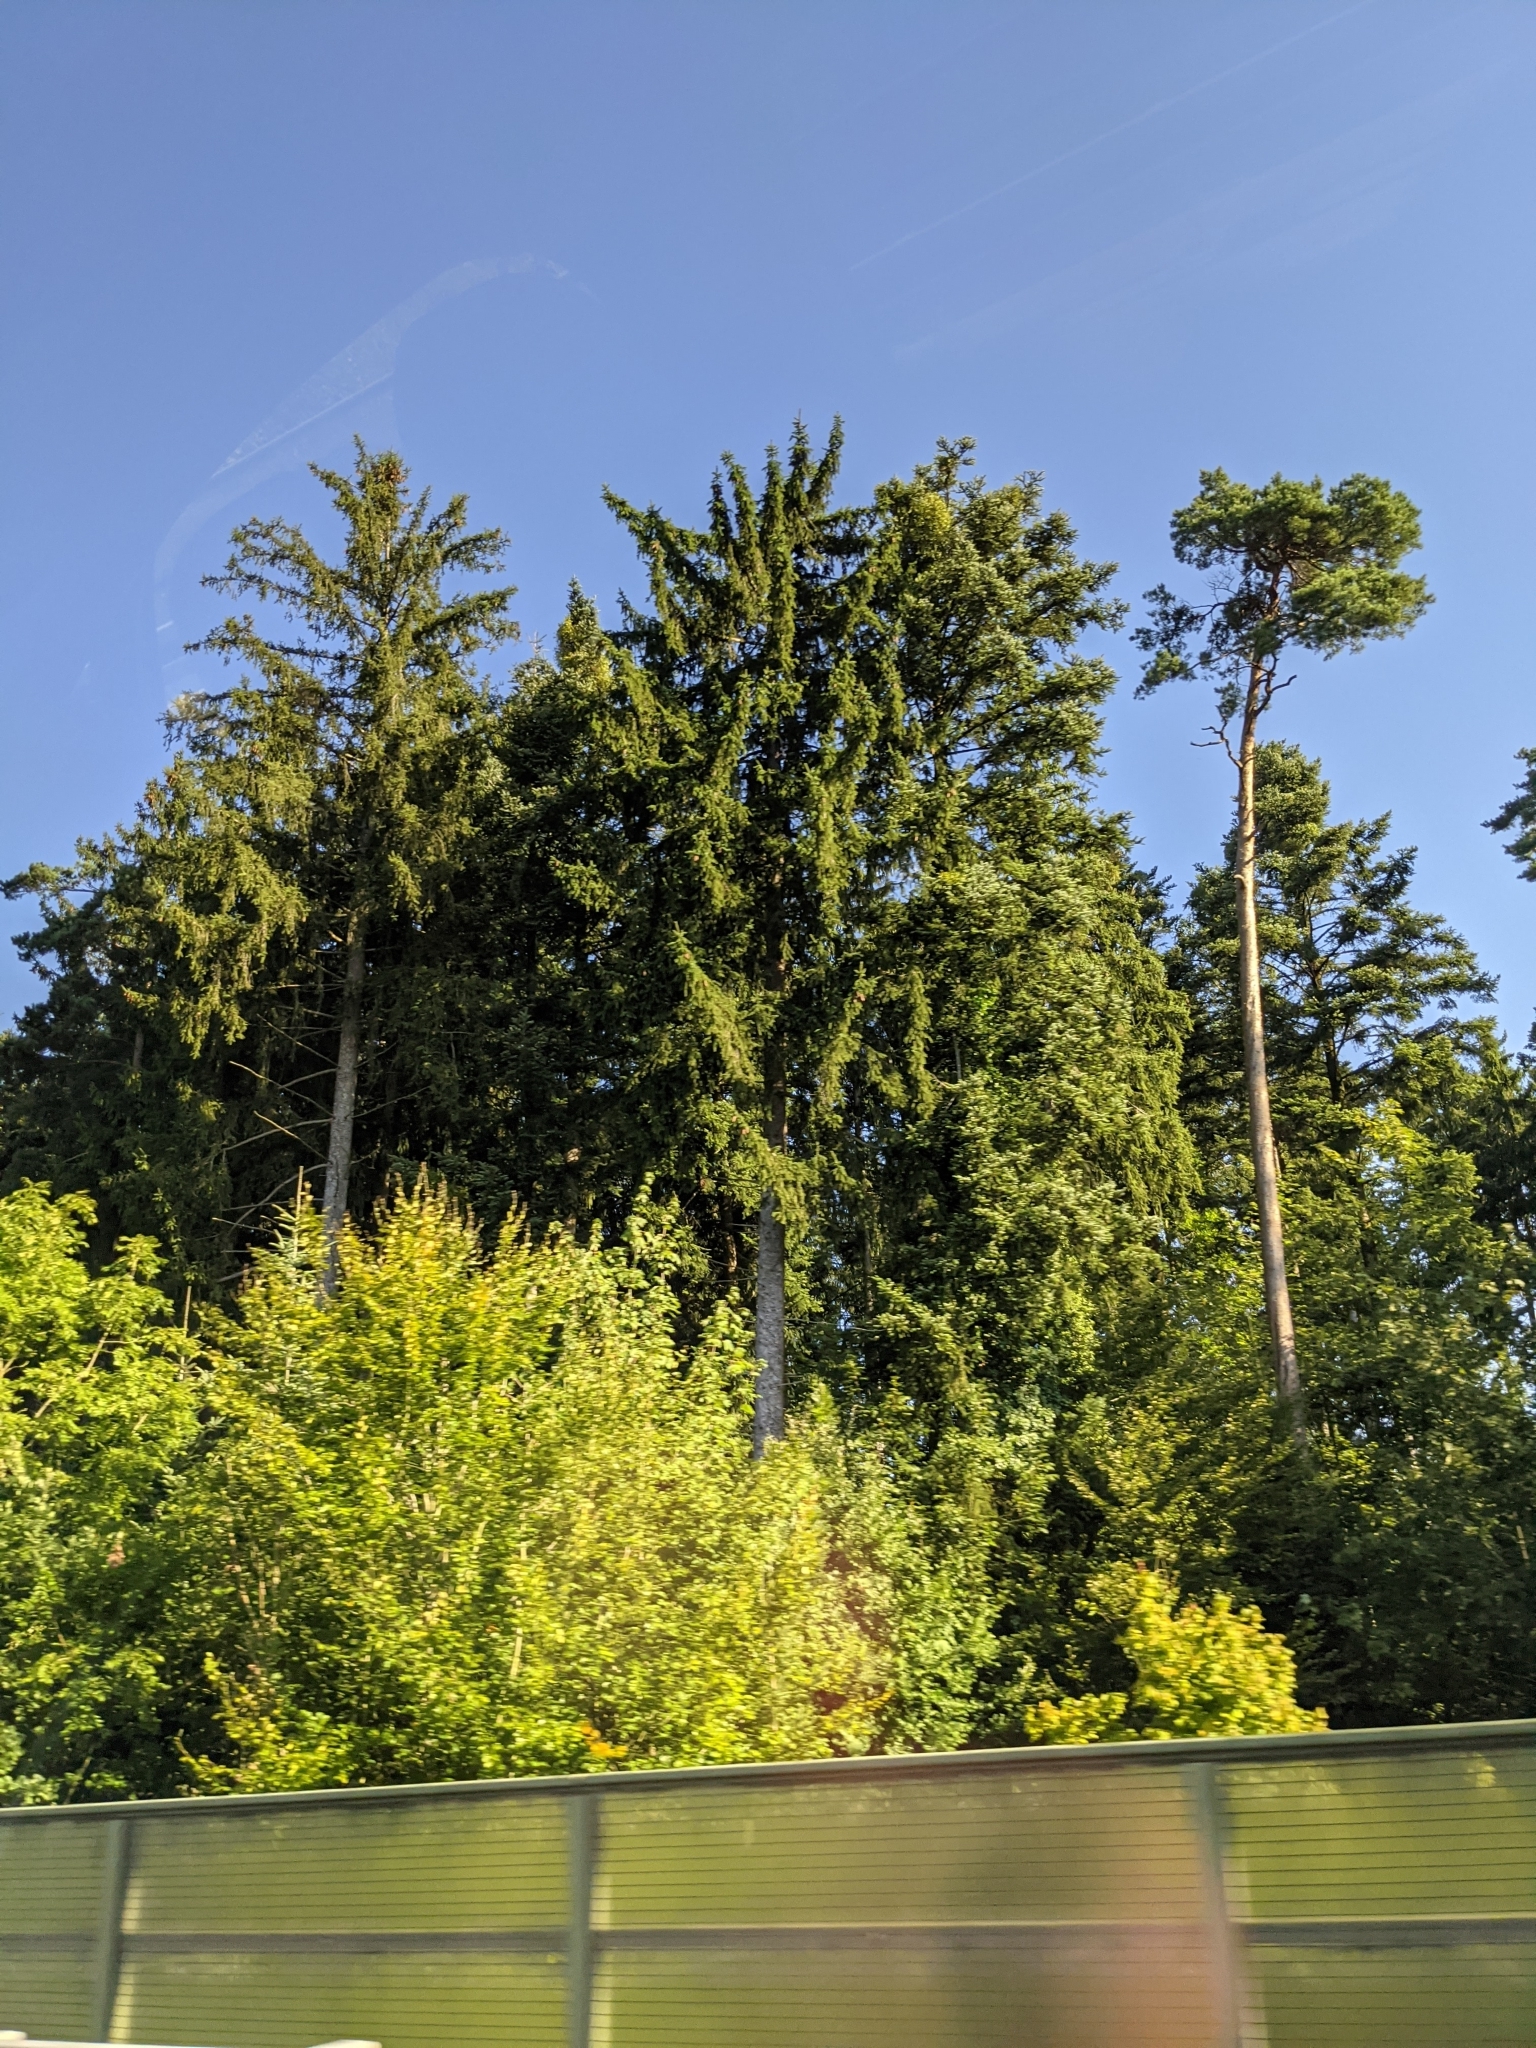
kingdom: Plantae
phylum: Tracheophyta
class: Pinopsida
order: Pinales
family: Pinaceae
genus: Picea
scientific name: Picea abies
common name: Norway spruce
